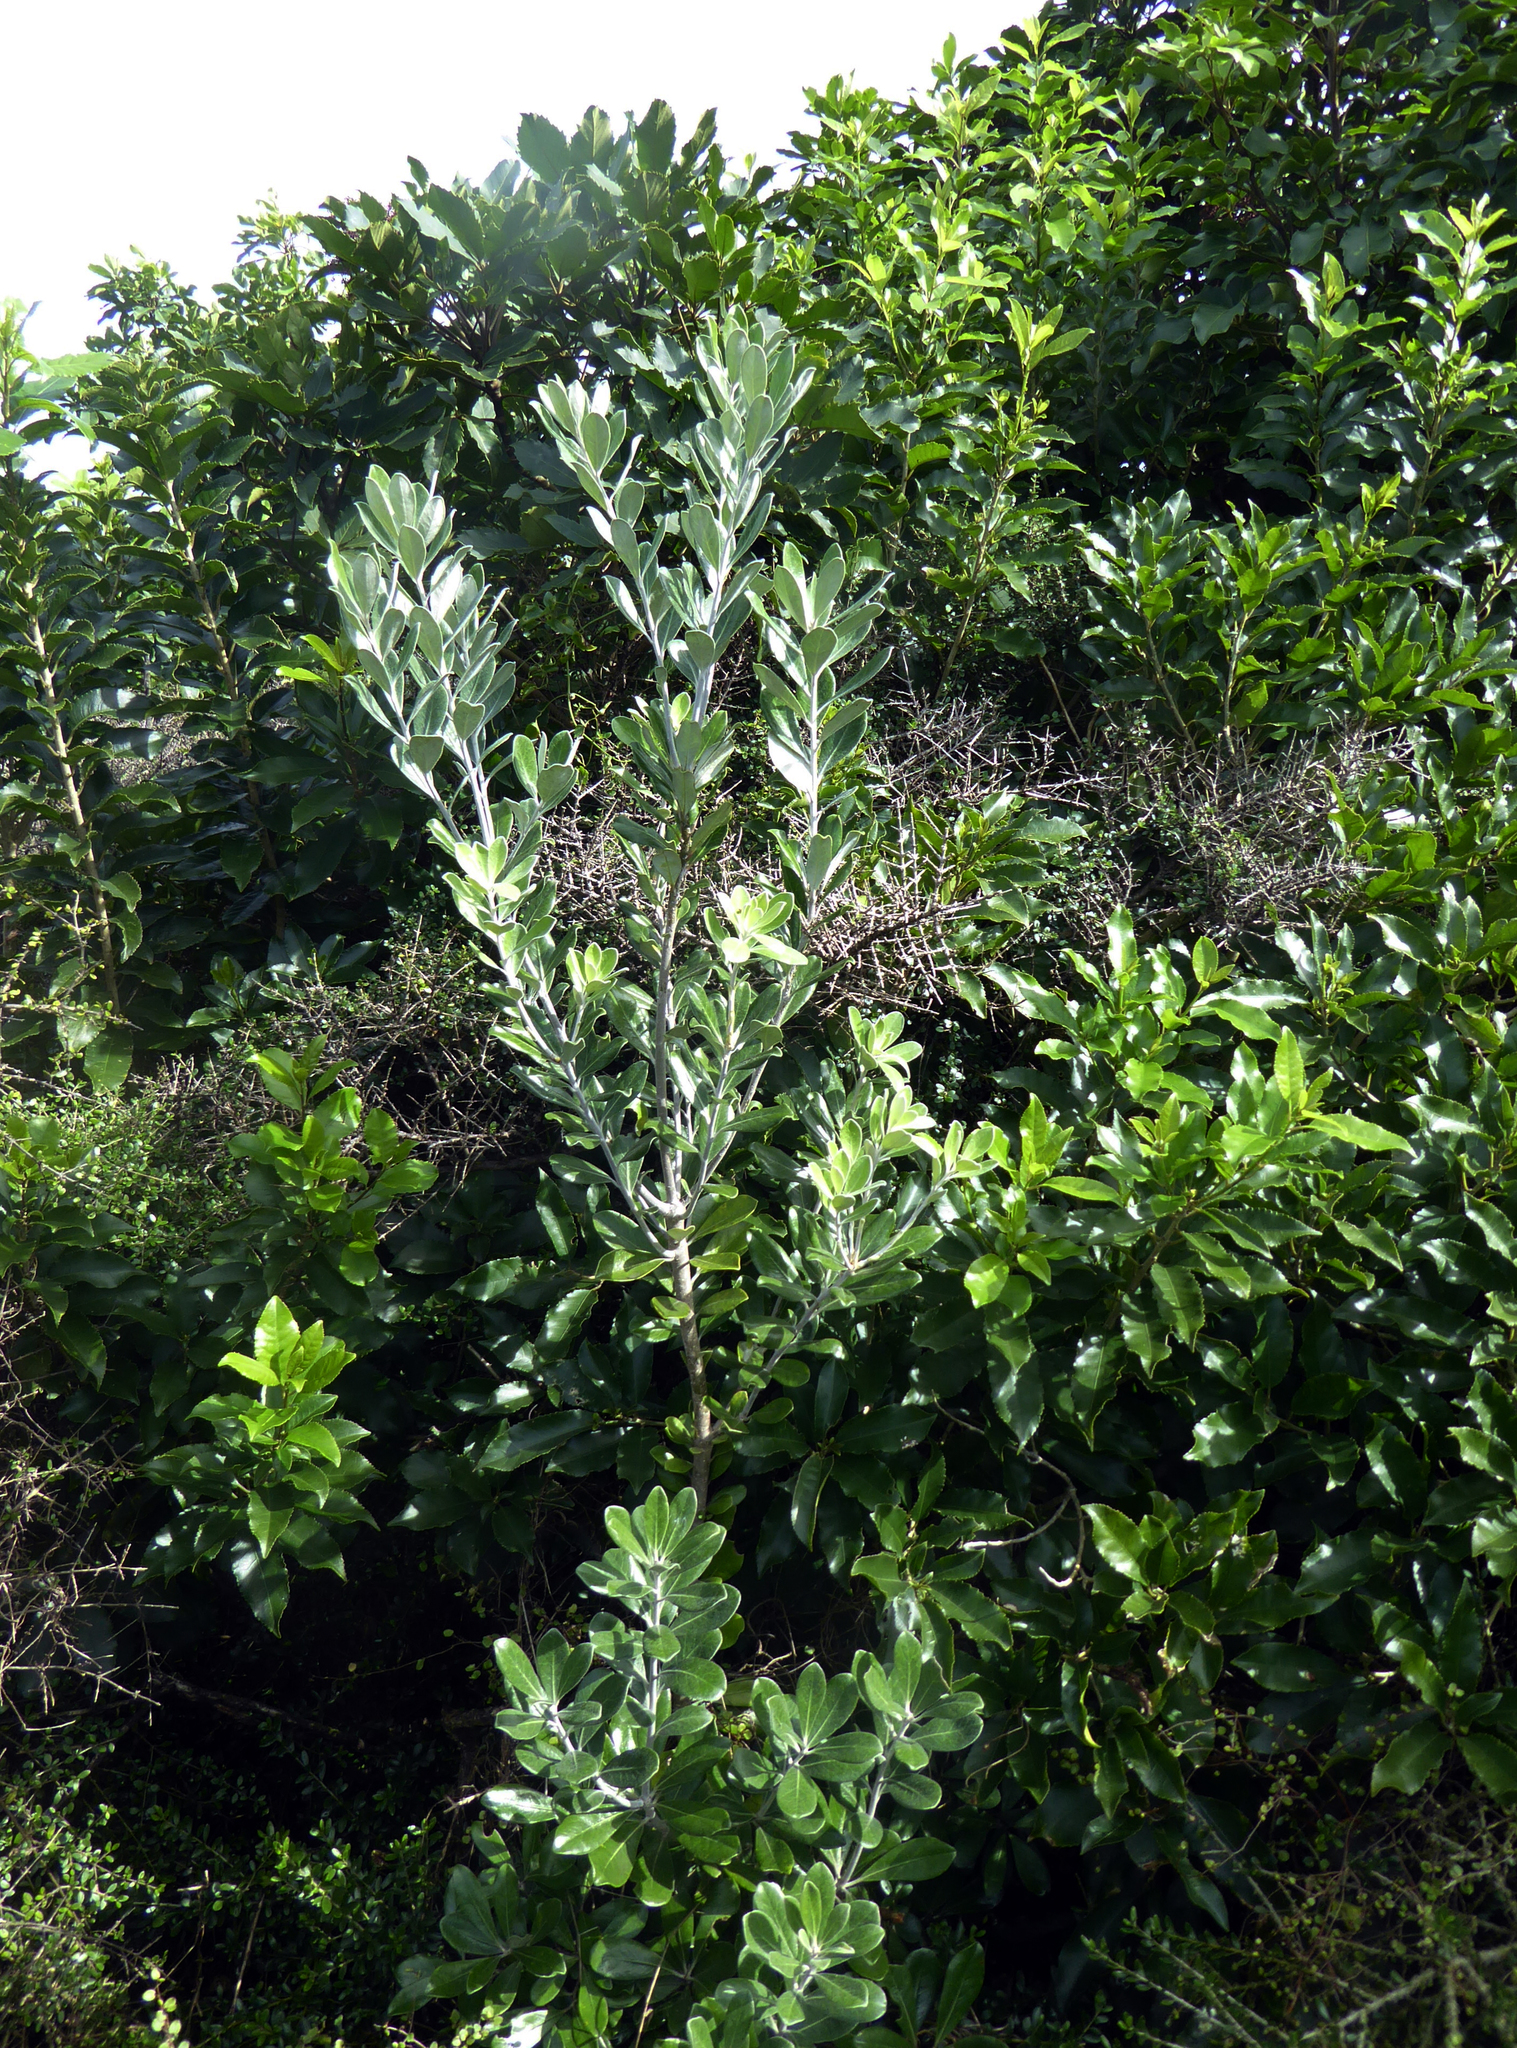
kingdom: Plantae
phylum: Tracheophyta
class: Magnoliopsida
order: Apiales
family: Pittosporaceae
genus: Pittosporum
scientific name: Pittosporum crassifolium
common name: Karo
